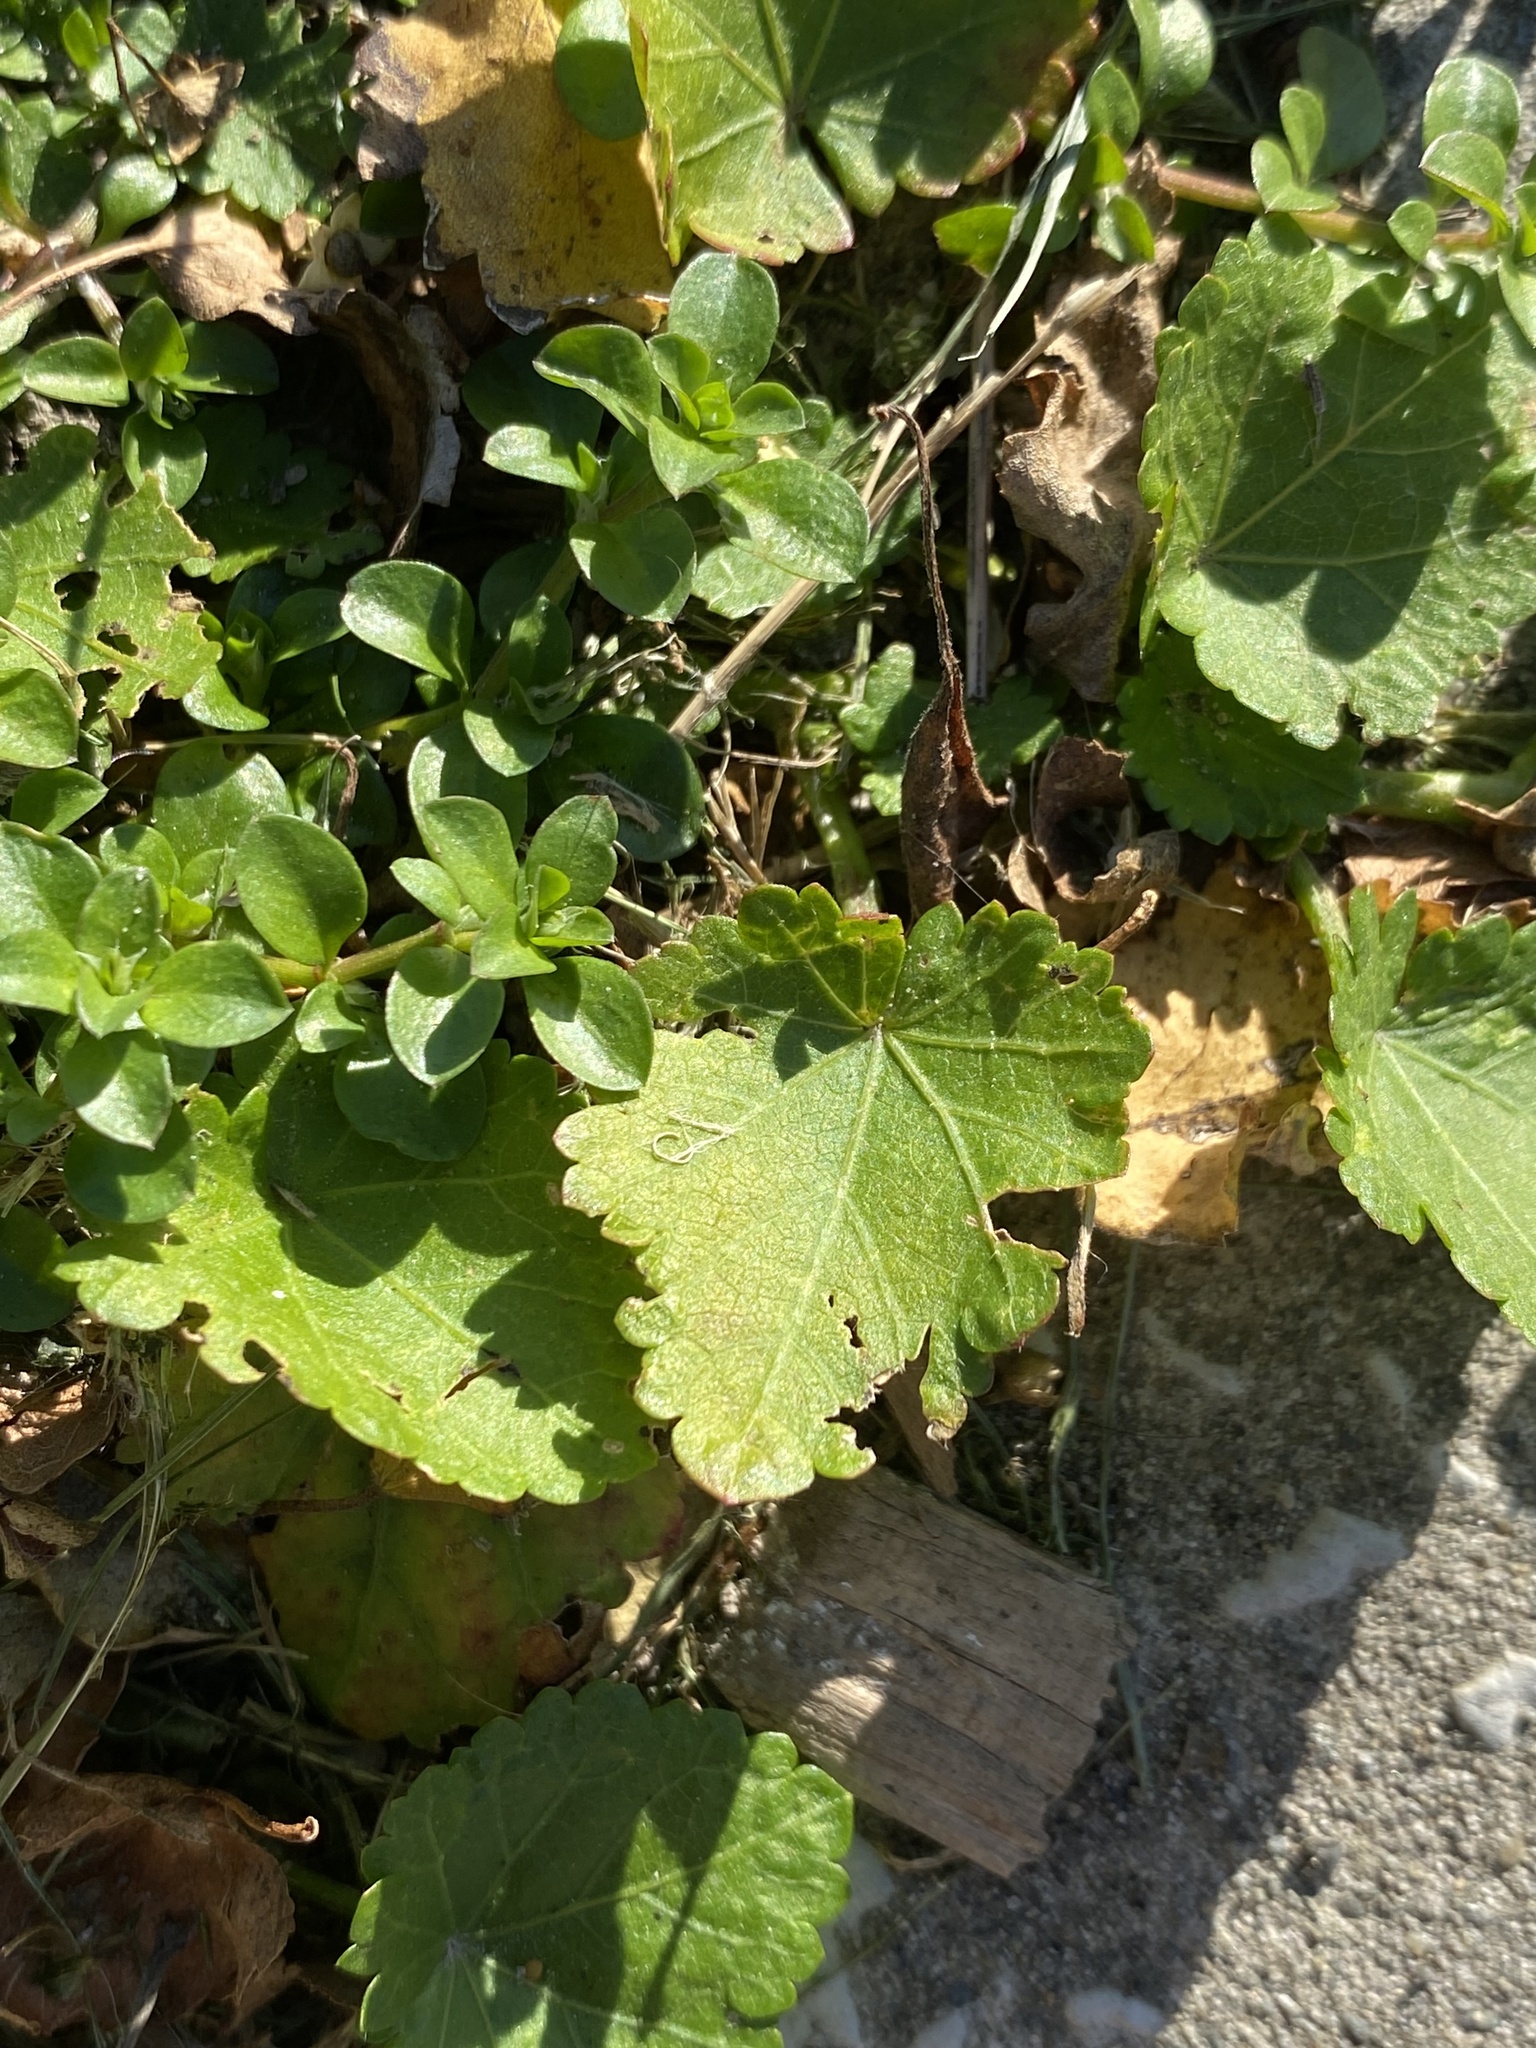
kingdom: Plantae
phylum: Tracheophyta
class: Magnoliopsida
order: Malvales
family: Malvaceae
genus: Modiola
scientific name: Modiola caroliniana
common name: Carolina bristlemallow
